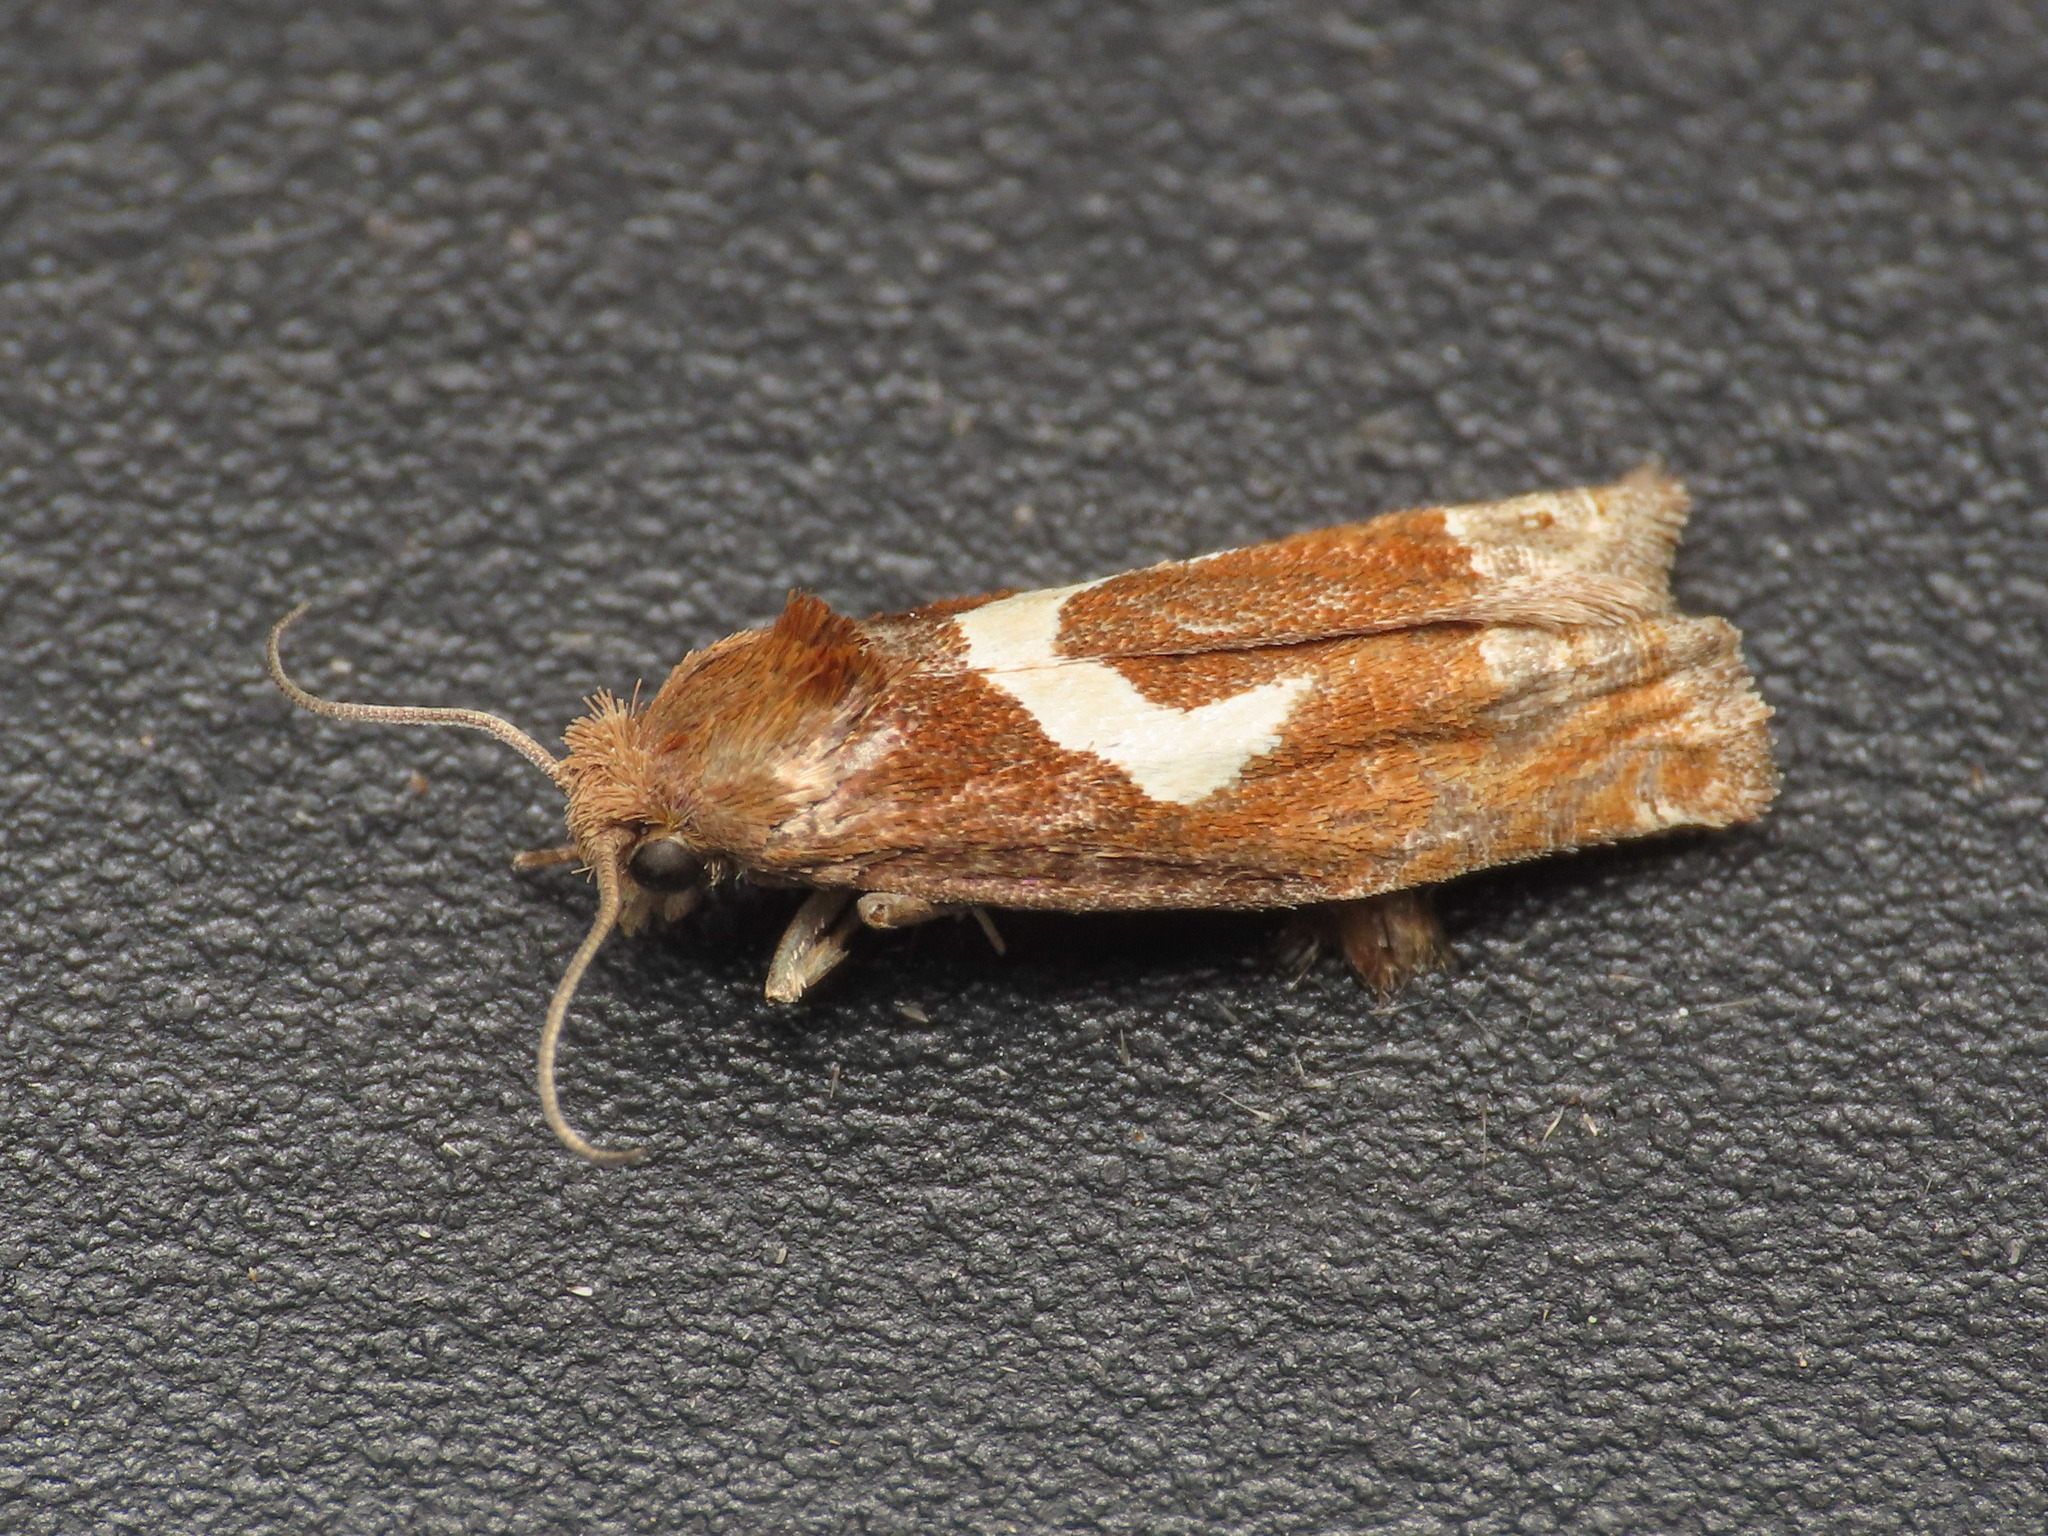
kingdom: Animalia
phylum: Arthropoda
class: Insecta
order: Lepidoptera
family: Tortricidae
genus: Epiblema
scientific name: Epiblema foenella
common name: White-foot bell
